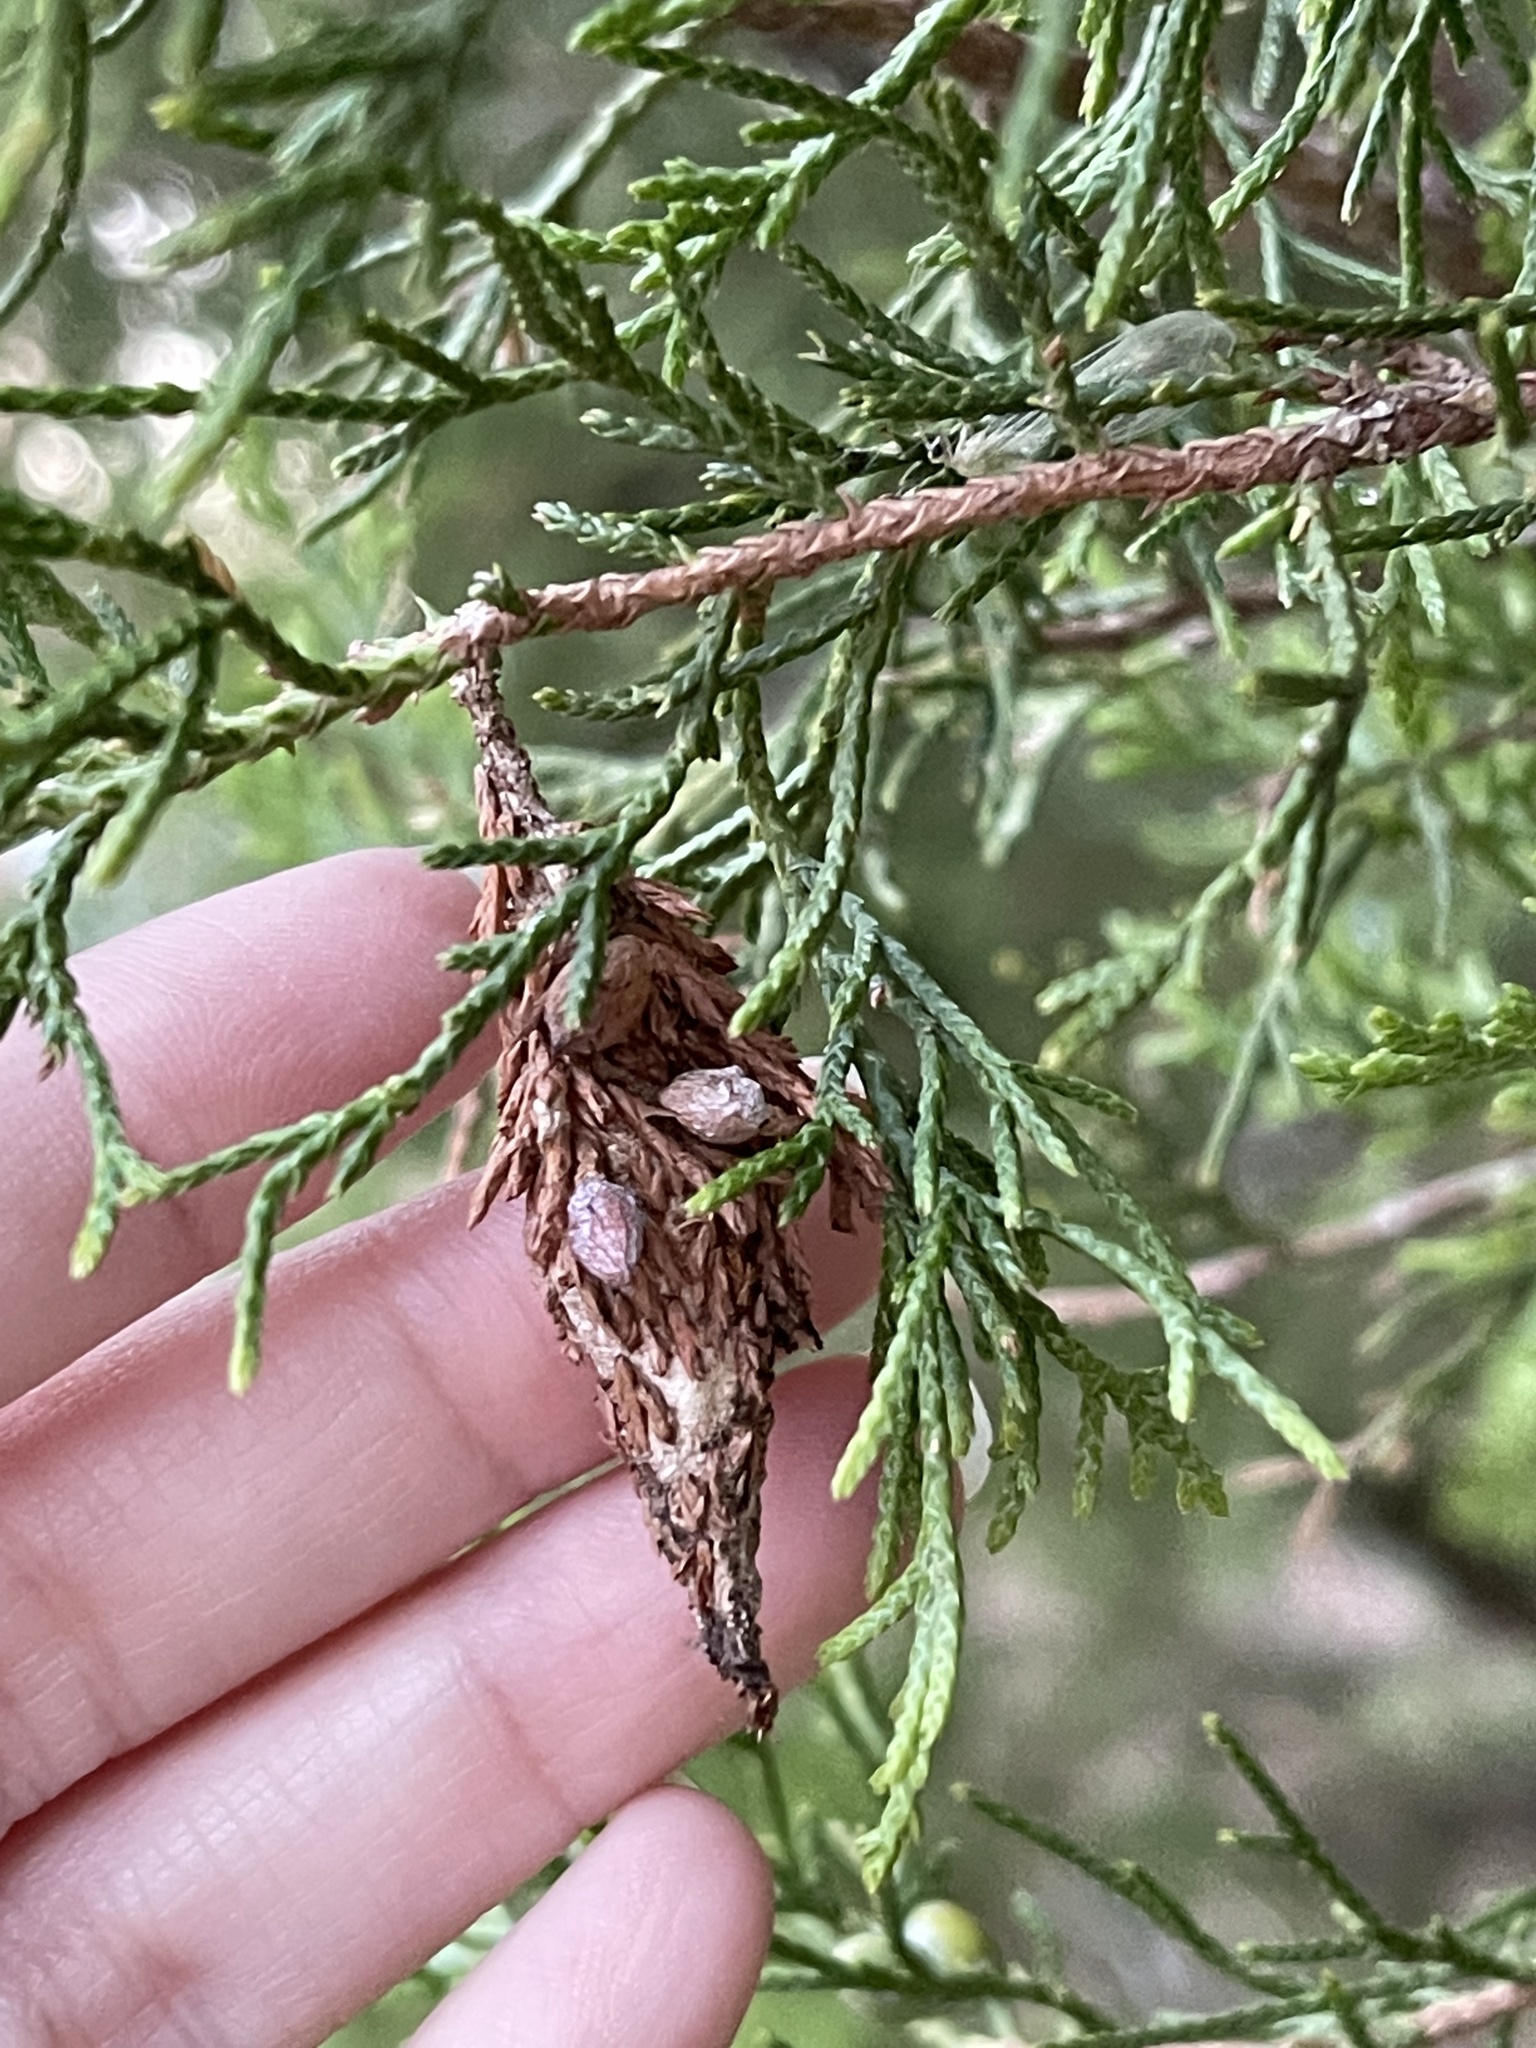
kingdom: Animalia
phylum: Arthropoda
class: Insecta
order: Lepidoptera
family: Psychidae
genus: Thyridopteryx
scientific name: Thyridopteryx ephemeraeformis
